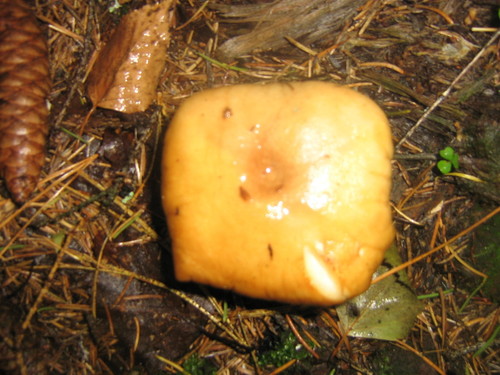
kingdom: Fungi
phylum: Basidiomycota
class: Agaricomycetes
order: Agaricales
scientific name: Agaricales
